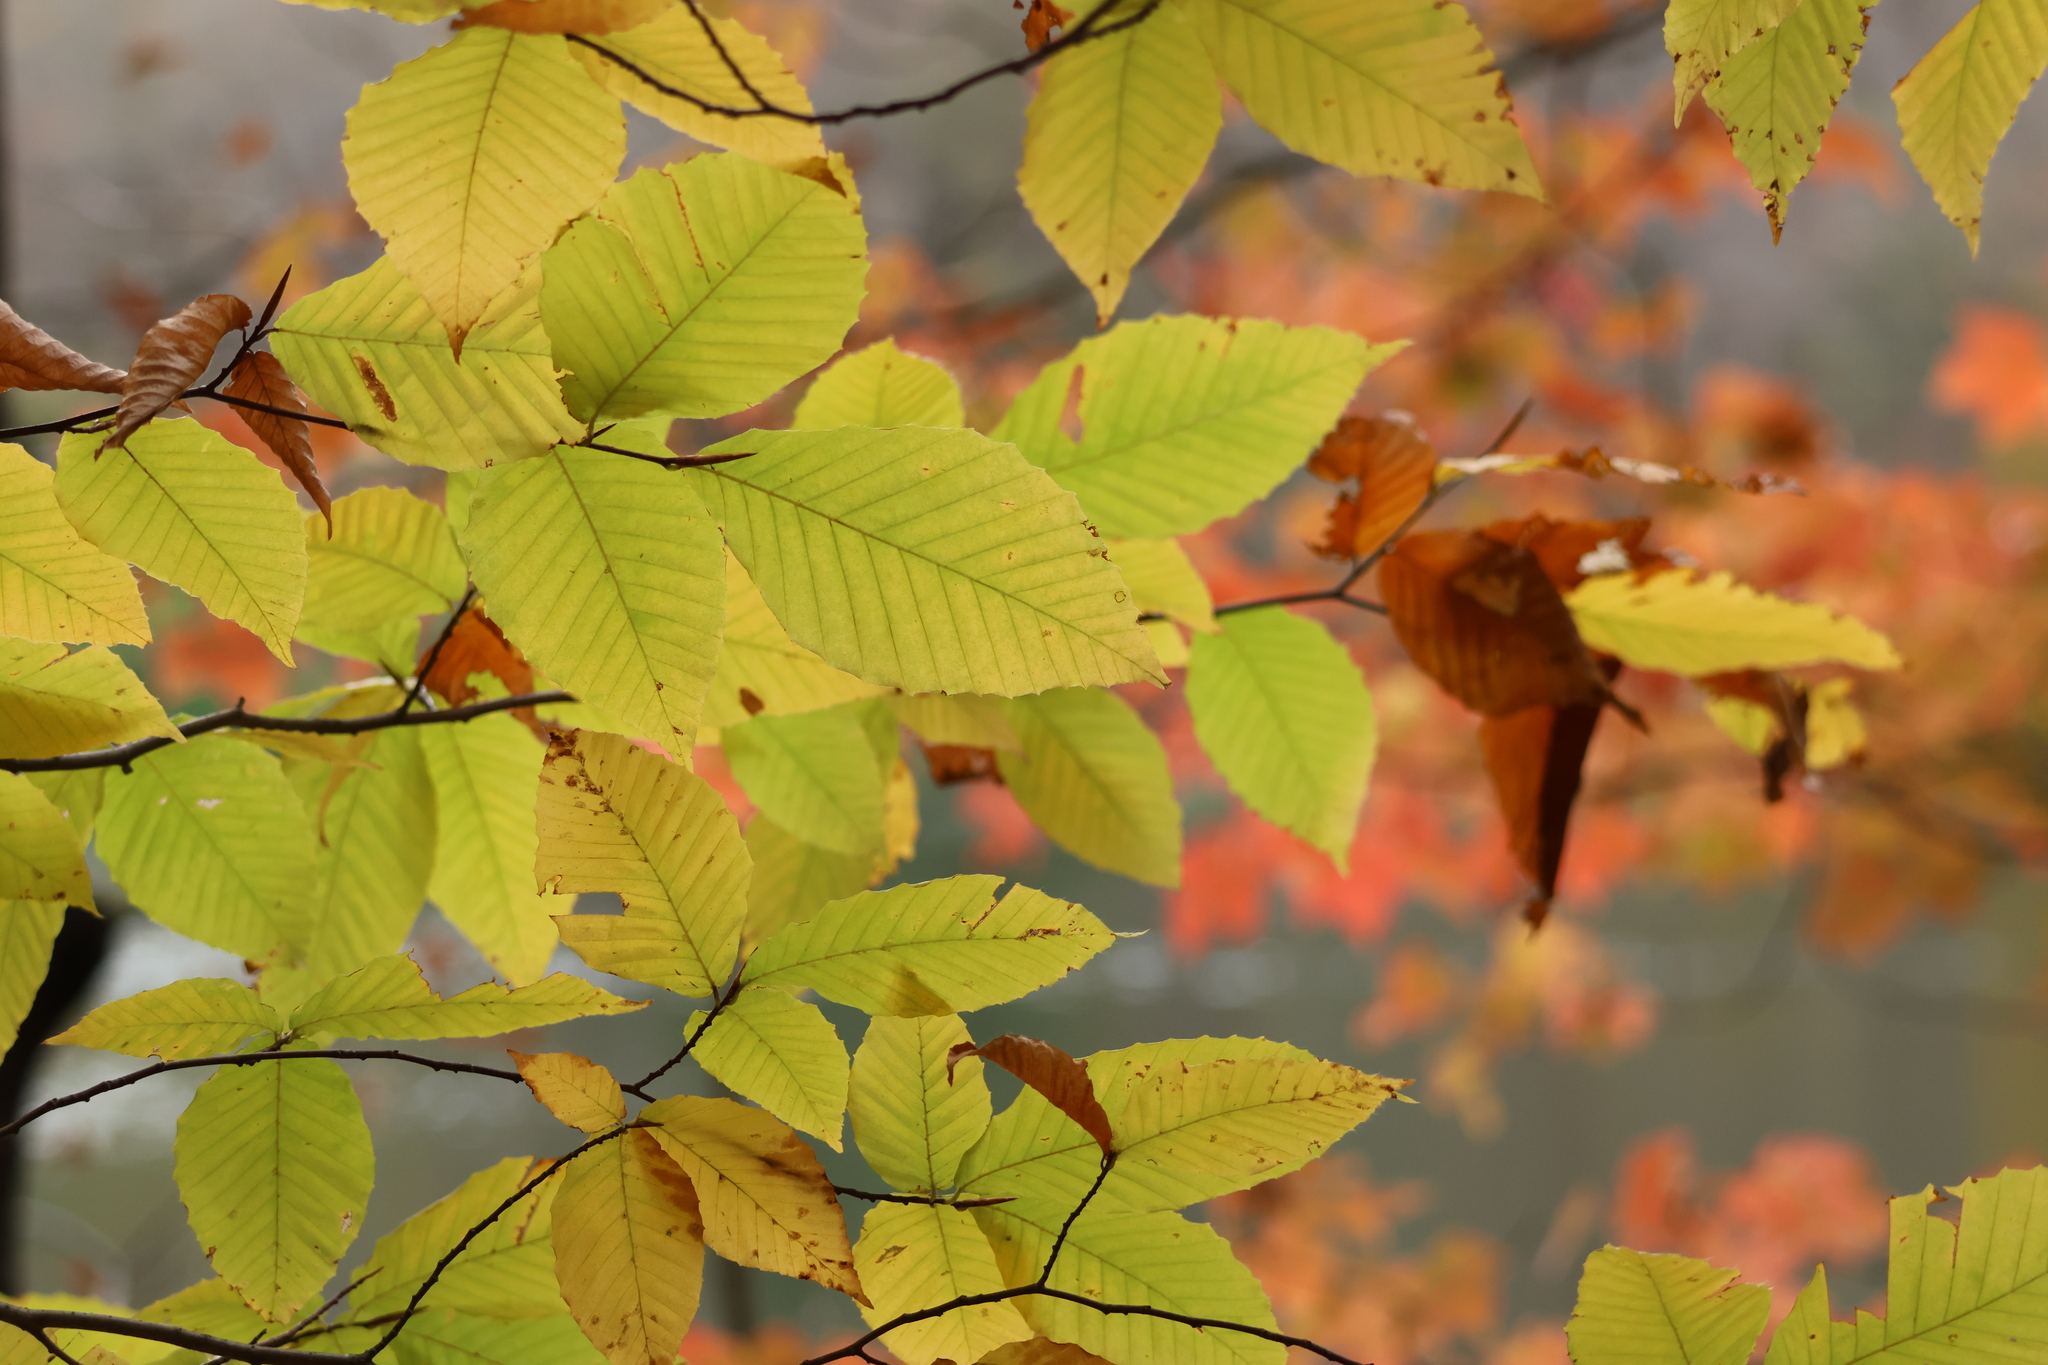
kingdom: Plantae
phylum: Tracheophyta
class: Magnoliopsida
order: Fagales
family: Fagaceae
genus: Fagus
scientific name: Fagus grandifolia
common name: American beech
